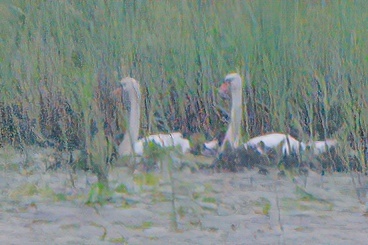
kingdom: Animalia
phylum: Chordata
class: Aves
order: Anseriformes
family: Anatidae
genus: Cygnus
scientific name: Cygnus olor
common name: Mute swan
